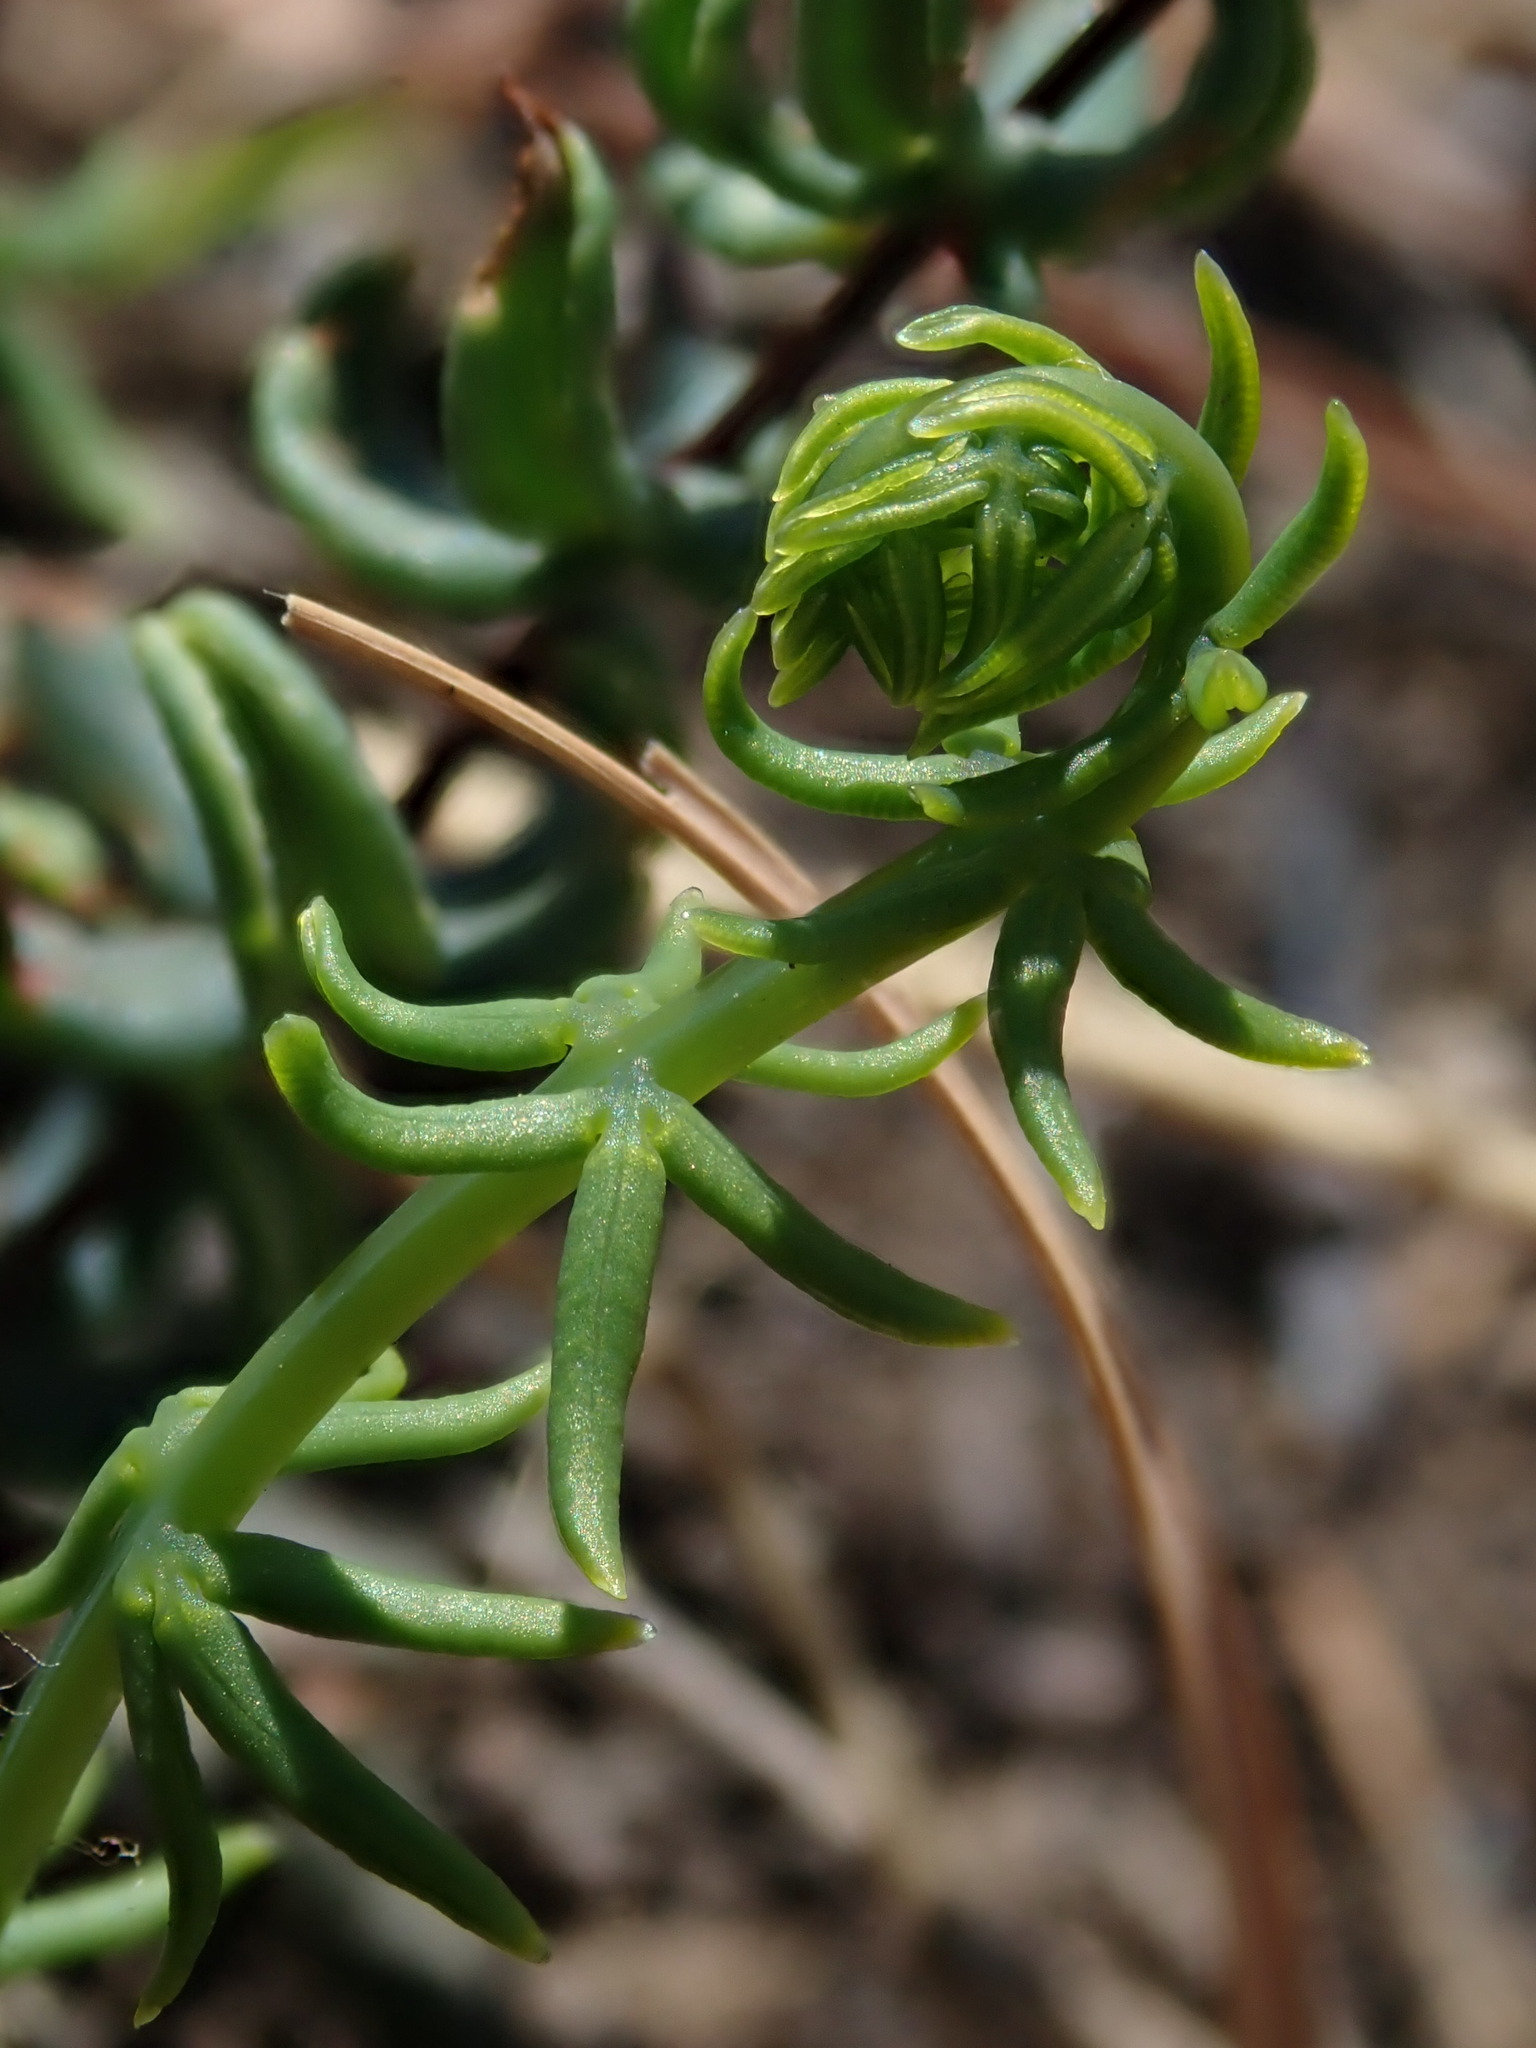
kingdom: Plantae
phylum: Tracheophyta
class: Polypodiopsida
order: Polypodiales
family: Pteridaceae
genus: Pellaea
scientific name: Pellaea ternifolia
